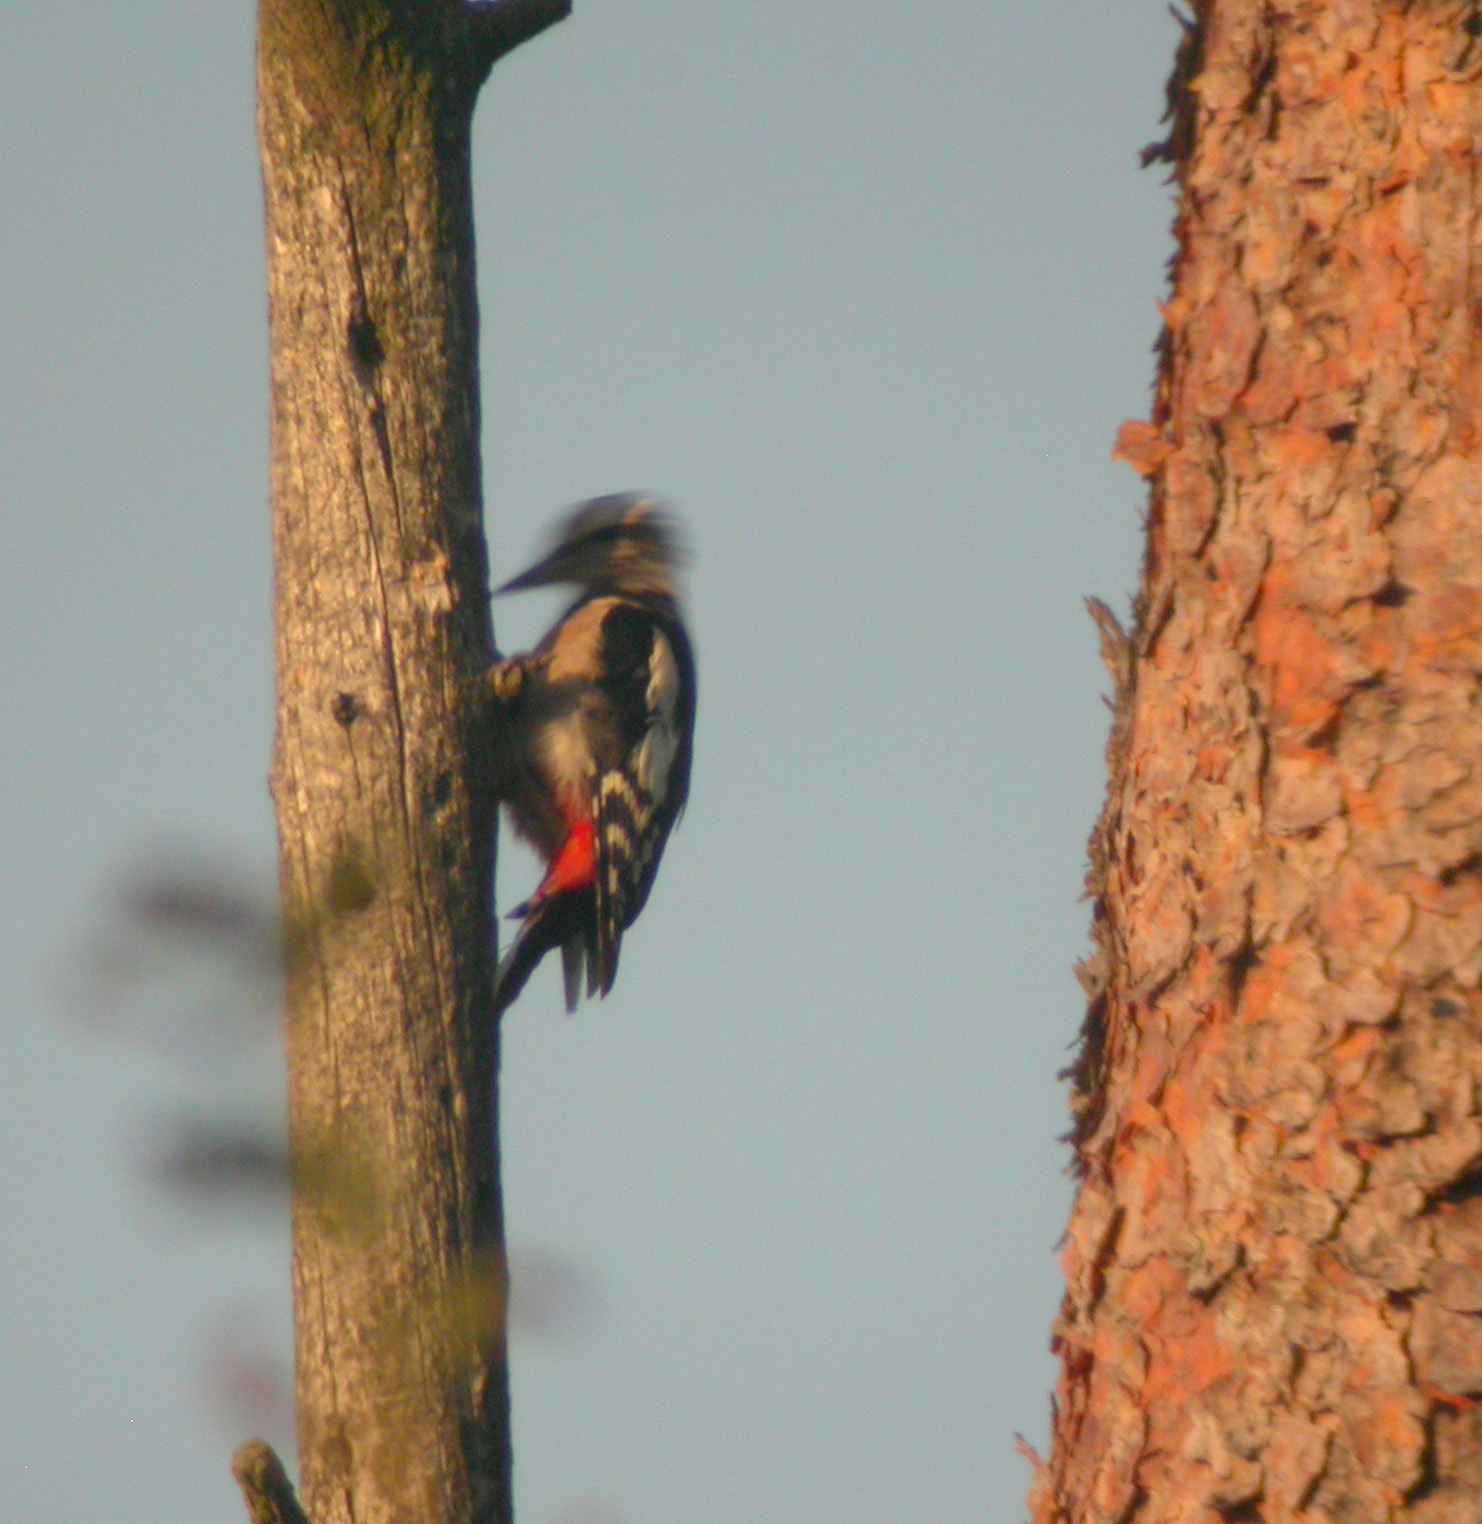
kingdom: Animalia
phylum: Chordata
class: Aves
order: Piciformes
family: Picidae
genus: Dendrocopos
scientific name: Dendrocopos major
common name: Great spotted woodpecker
